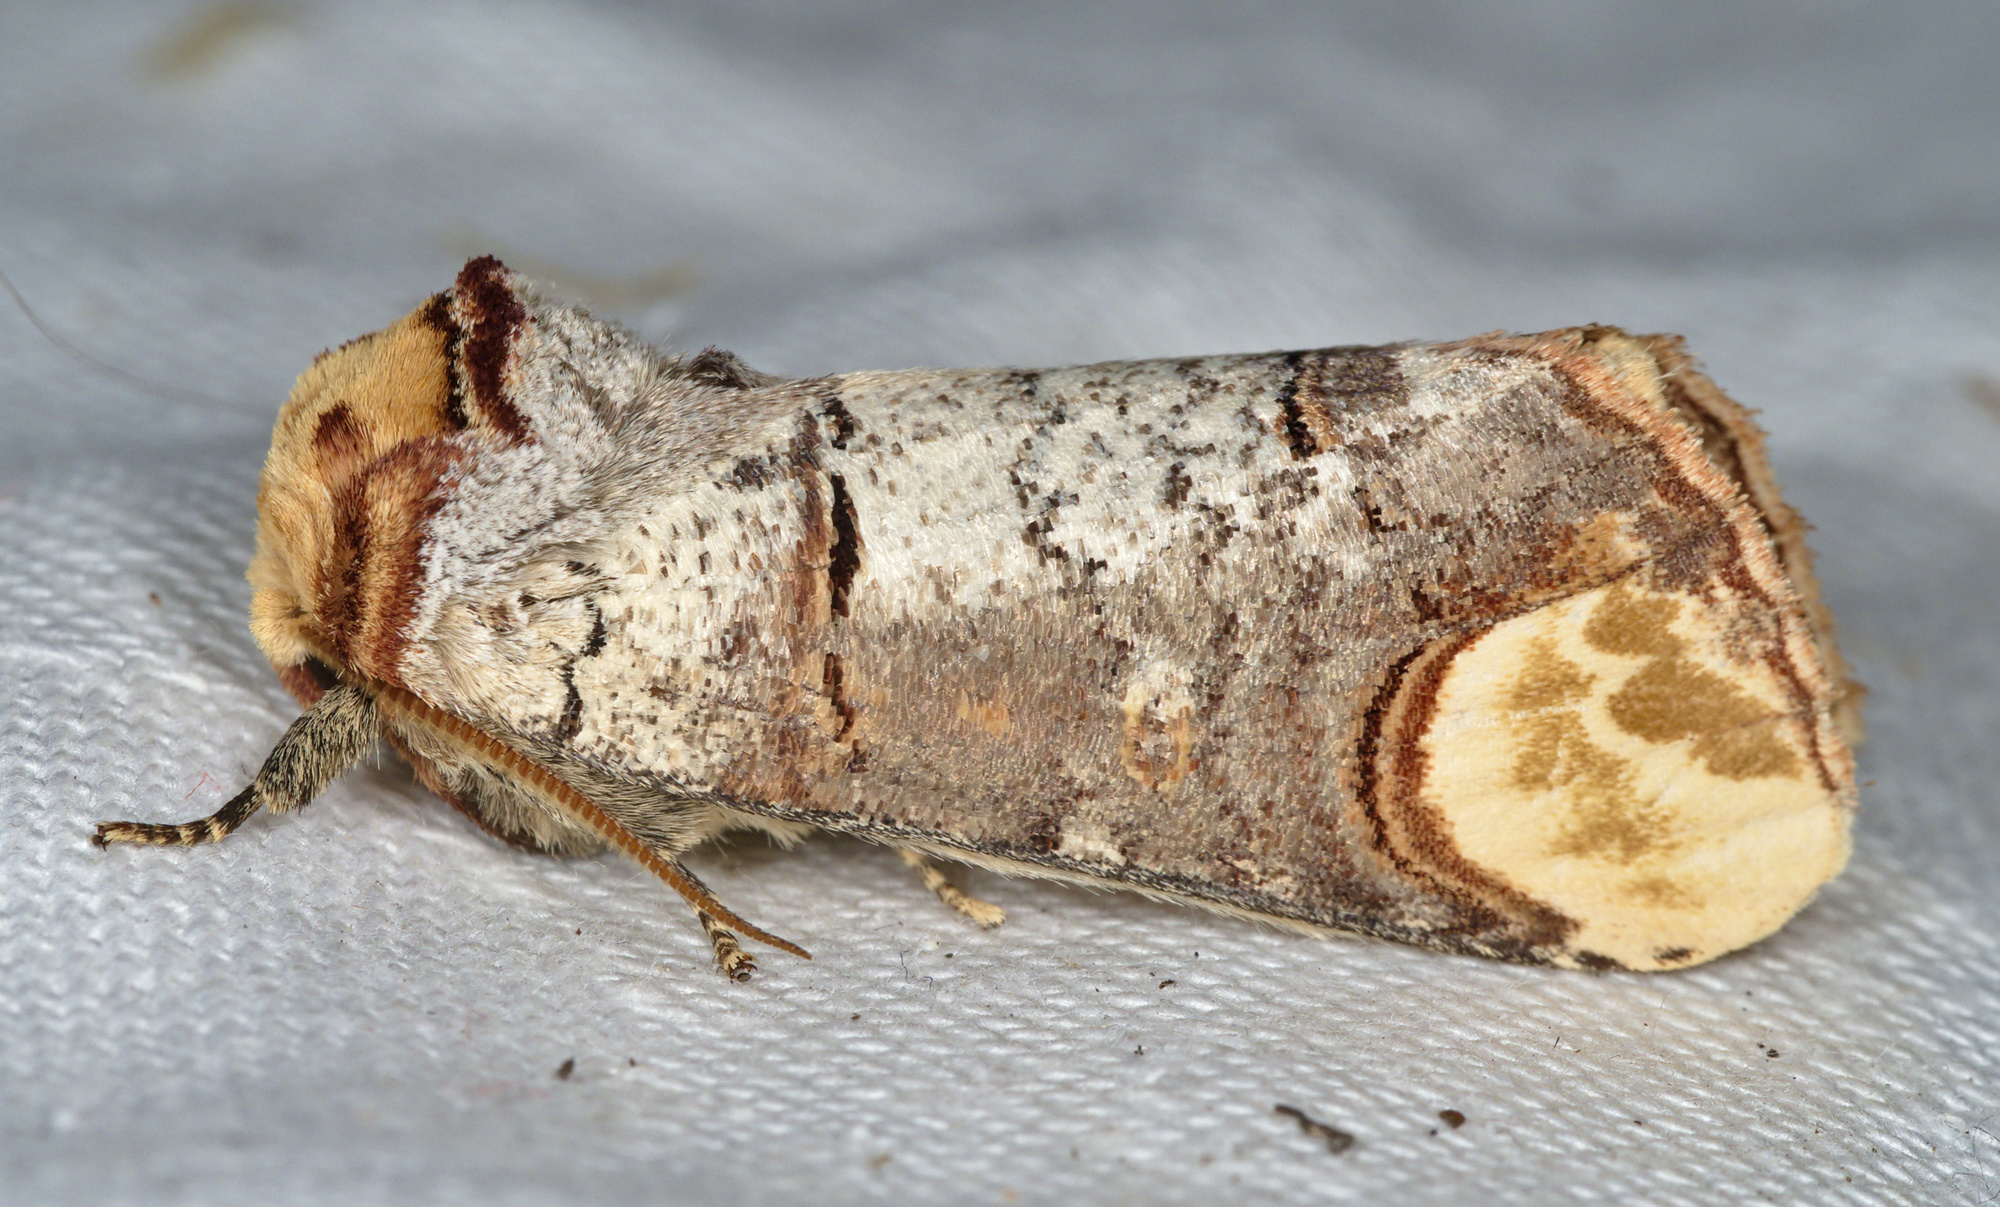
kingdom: Animalia
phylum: Arthropoda
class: Insecta
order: Lepidoptera
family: Notodontidae
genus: Phalera
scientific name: Phalera bucephala
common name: Buff-tip
